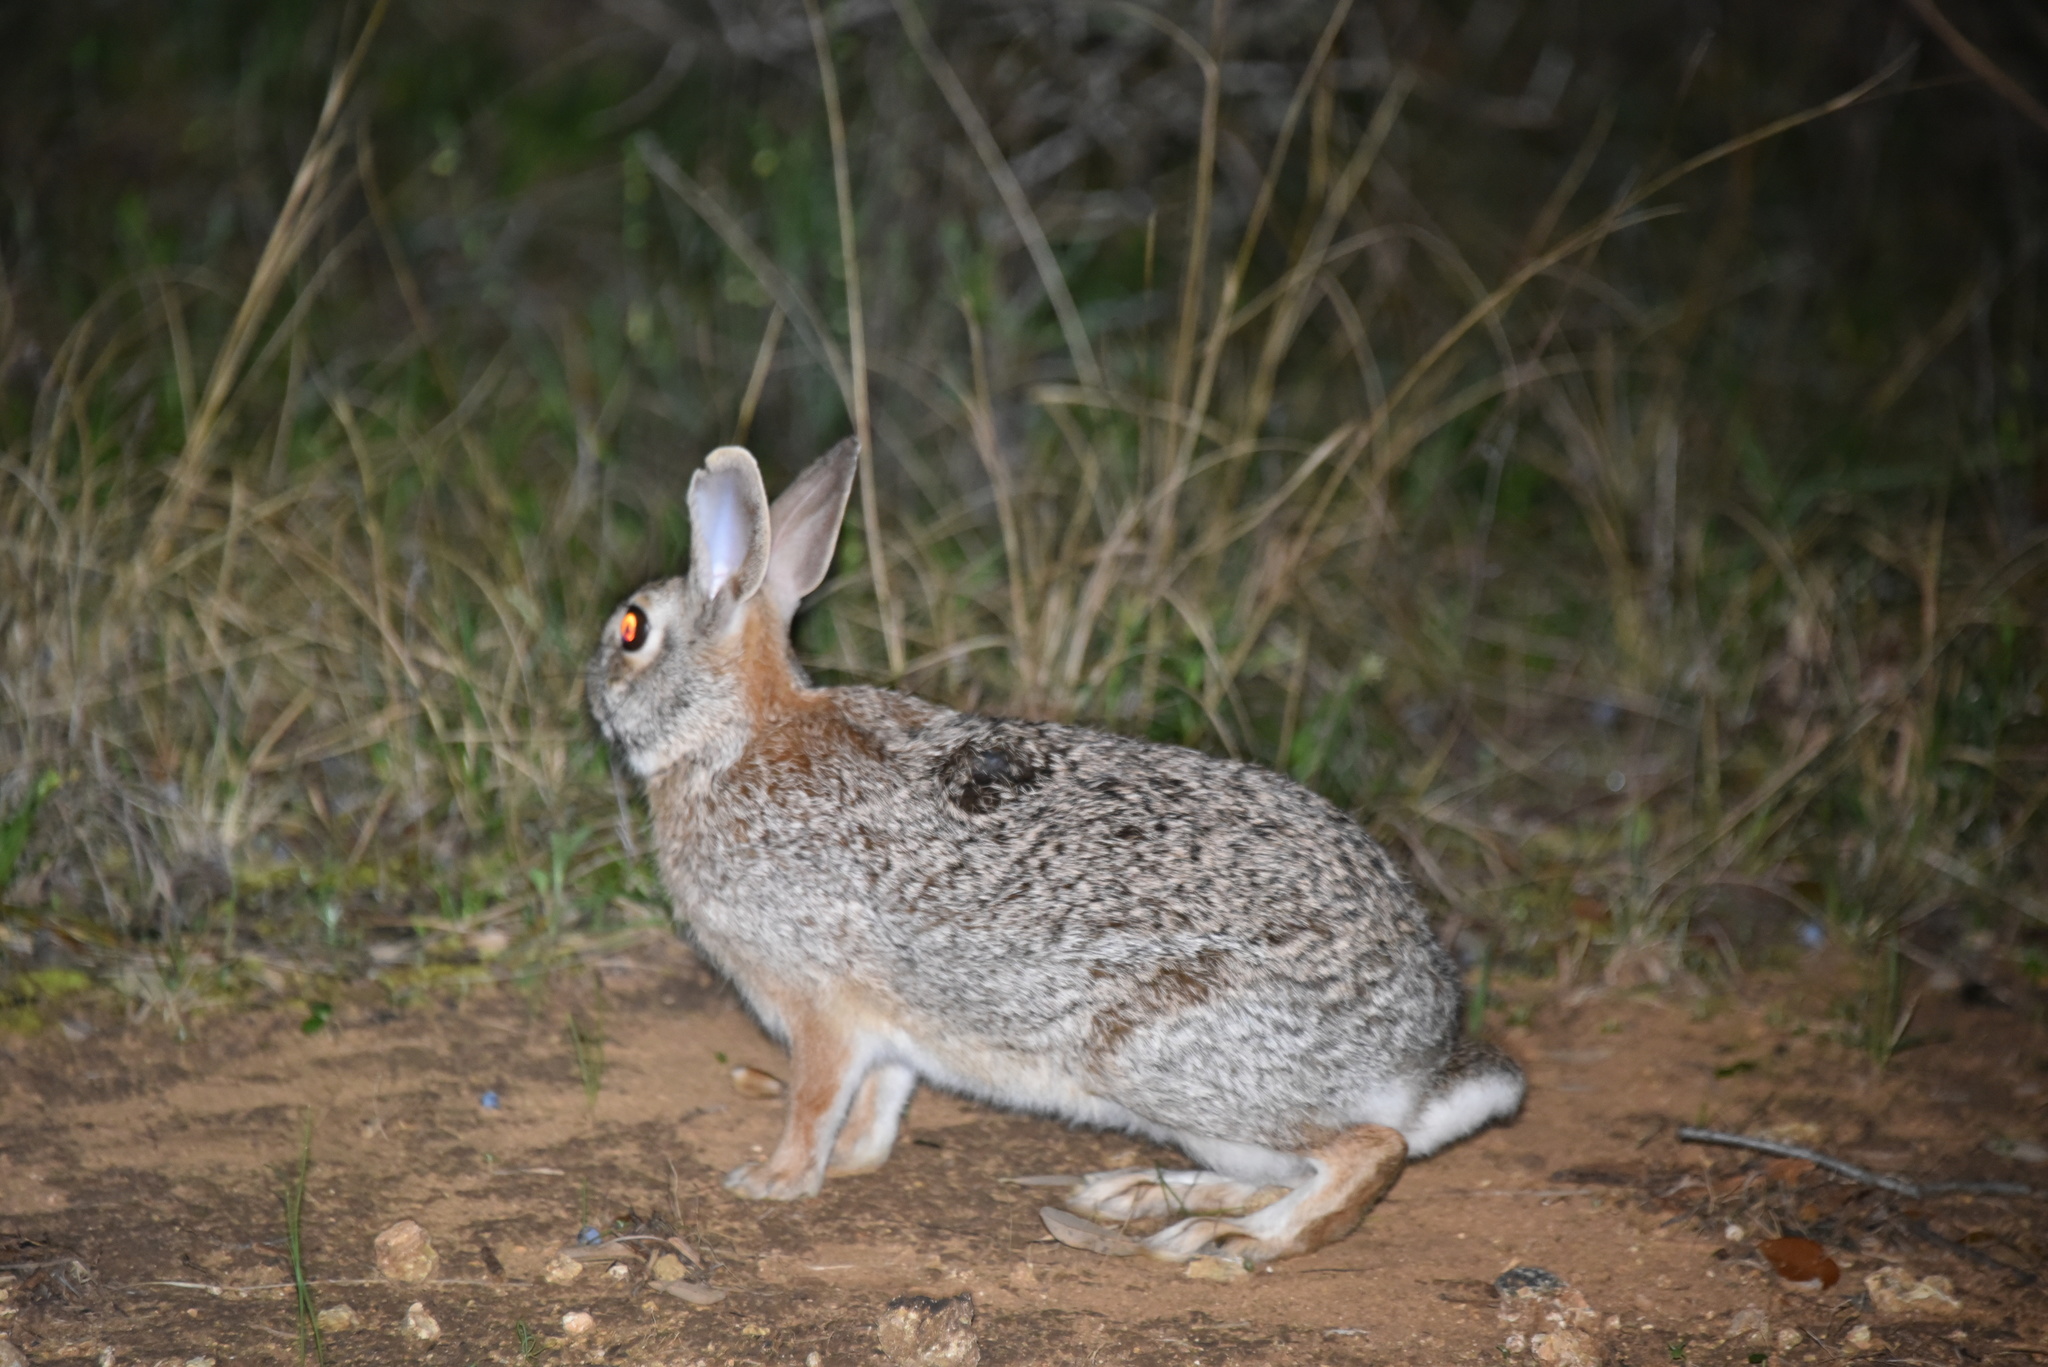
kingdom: Animalia
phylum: Chordata
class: Mammalia
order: Lagomorpha
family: Leporidae
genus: Sylvilagus
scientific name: Sylvilagus floridanus
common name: Eastern cottontail
